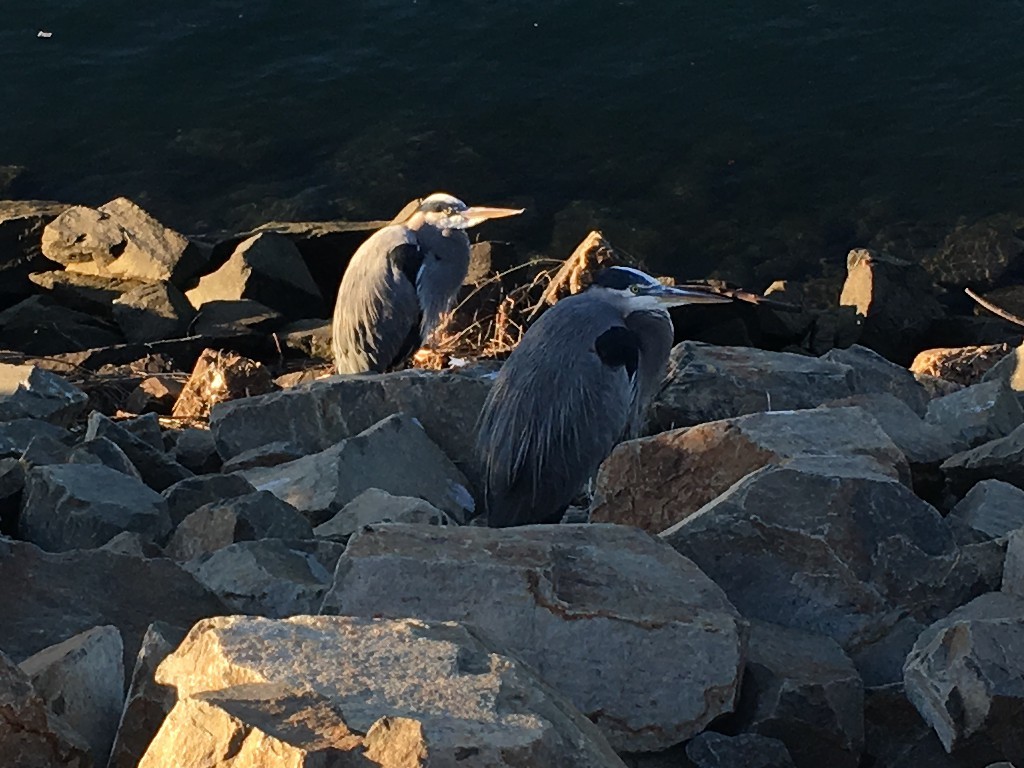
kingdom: Animalia
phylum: Chordata
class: Aves
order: Pelecaniformes
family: Ardeidae
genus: Ardea
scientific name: Ardea herodias
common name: Great blue heron
